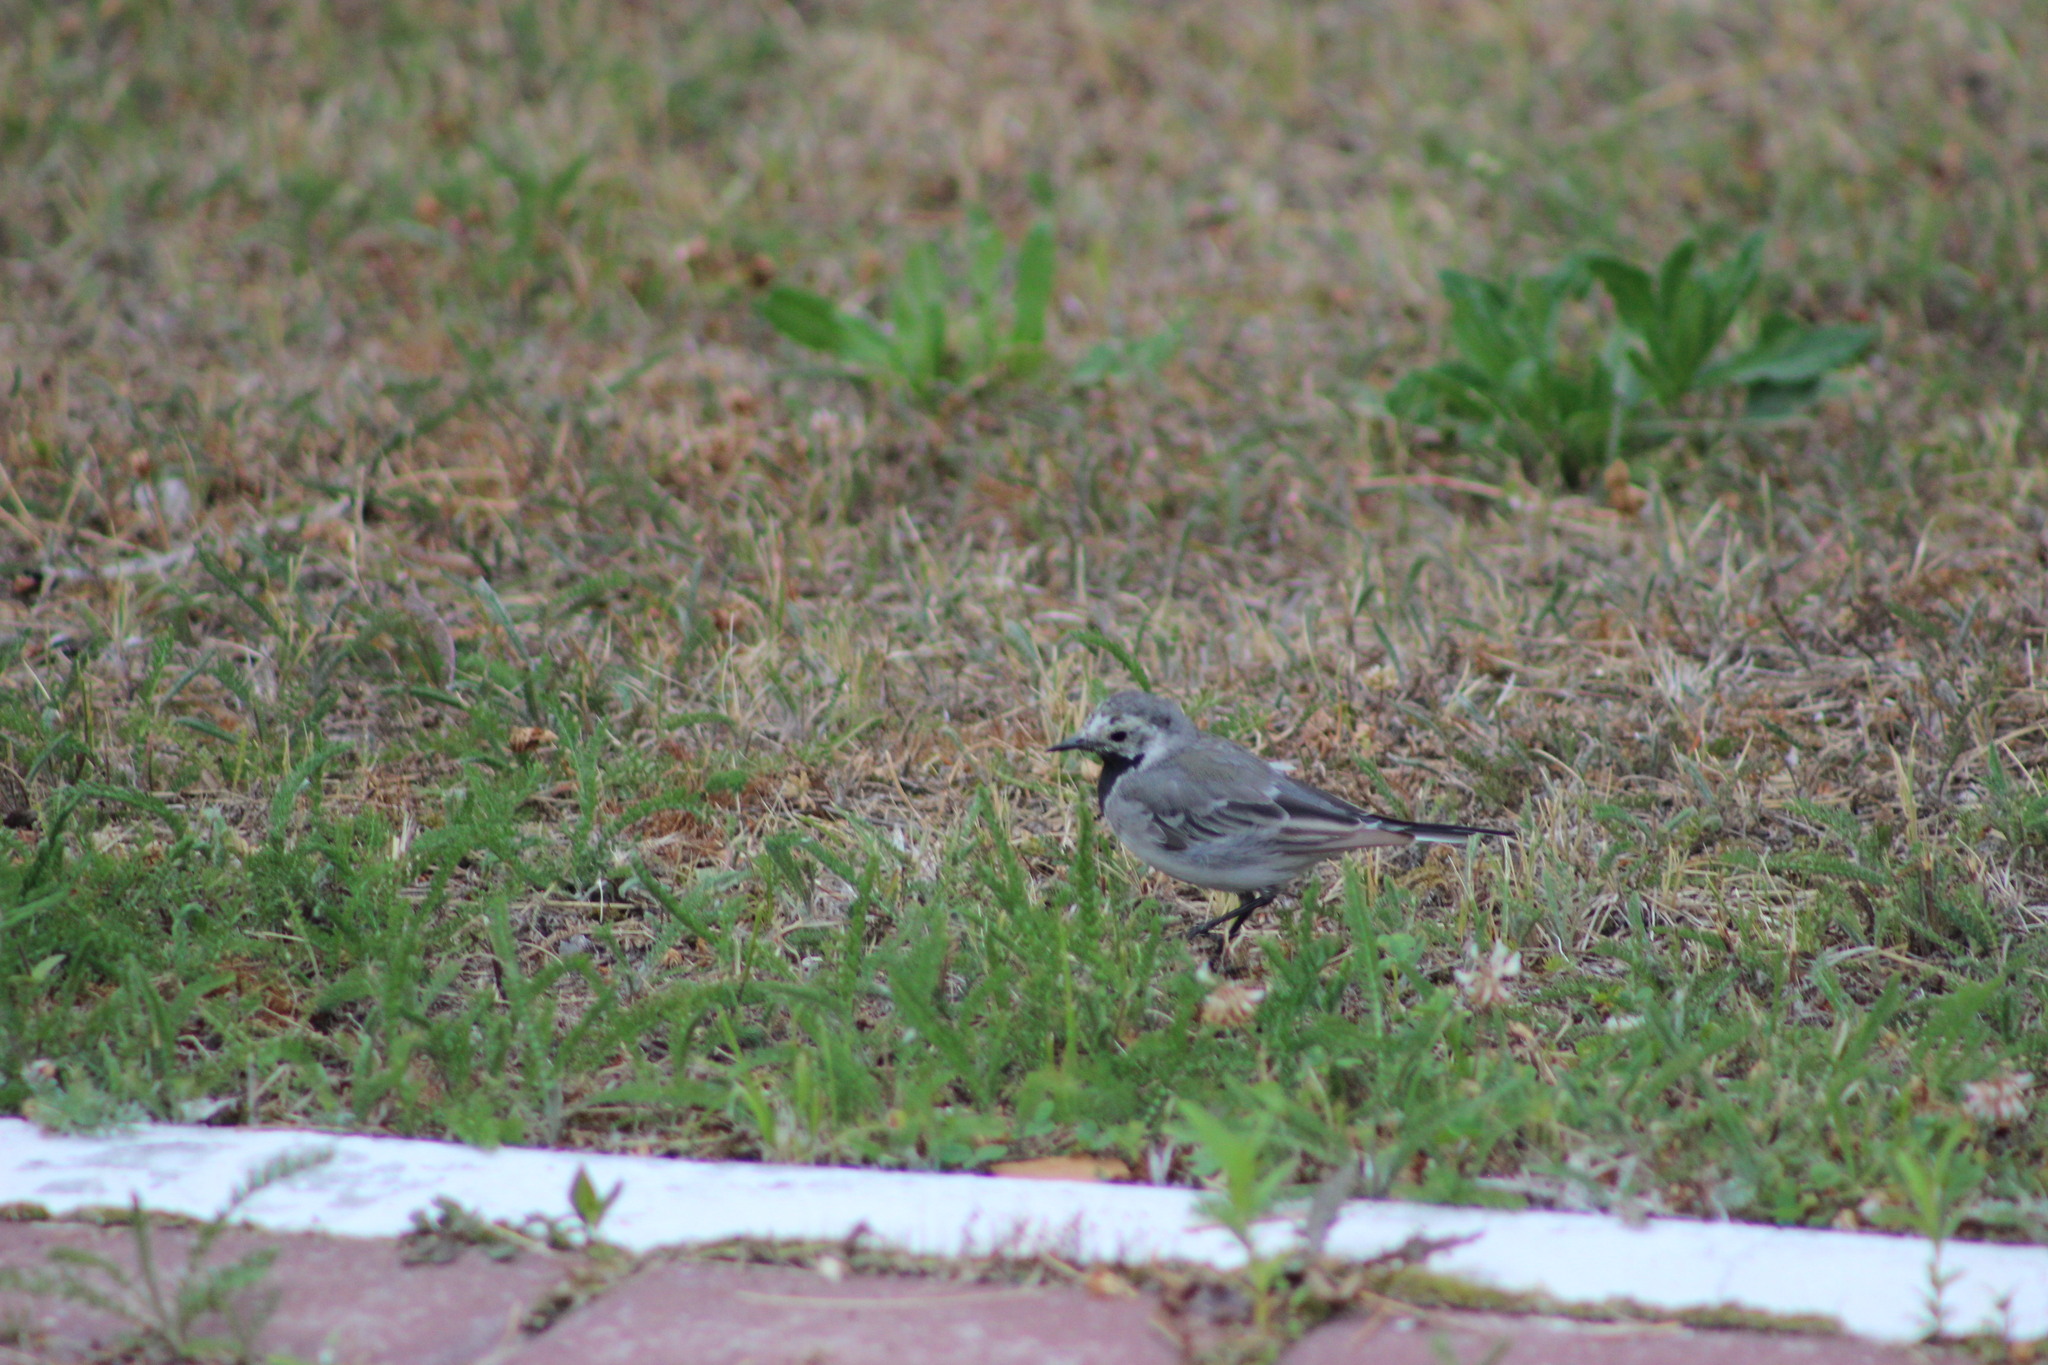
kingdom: Animalia
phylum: Chordata
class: Aves
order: Passeriformes
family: Motacillidae
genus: Motacilla
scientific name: Motacilla alba
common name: White wagtail
